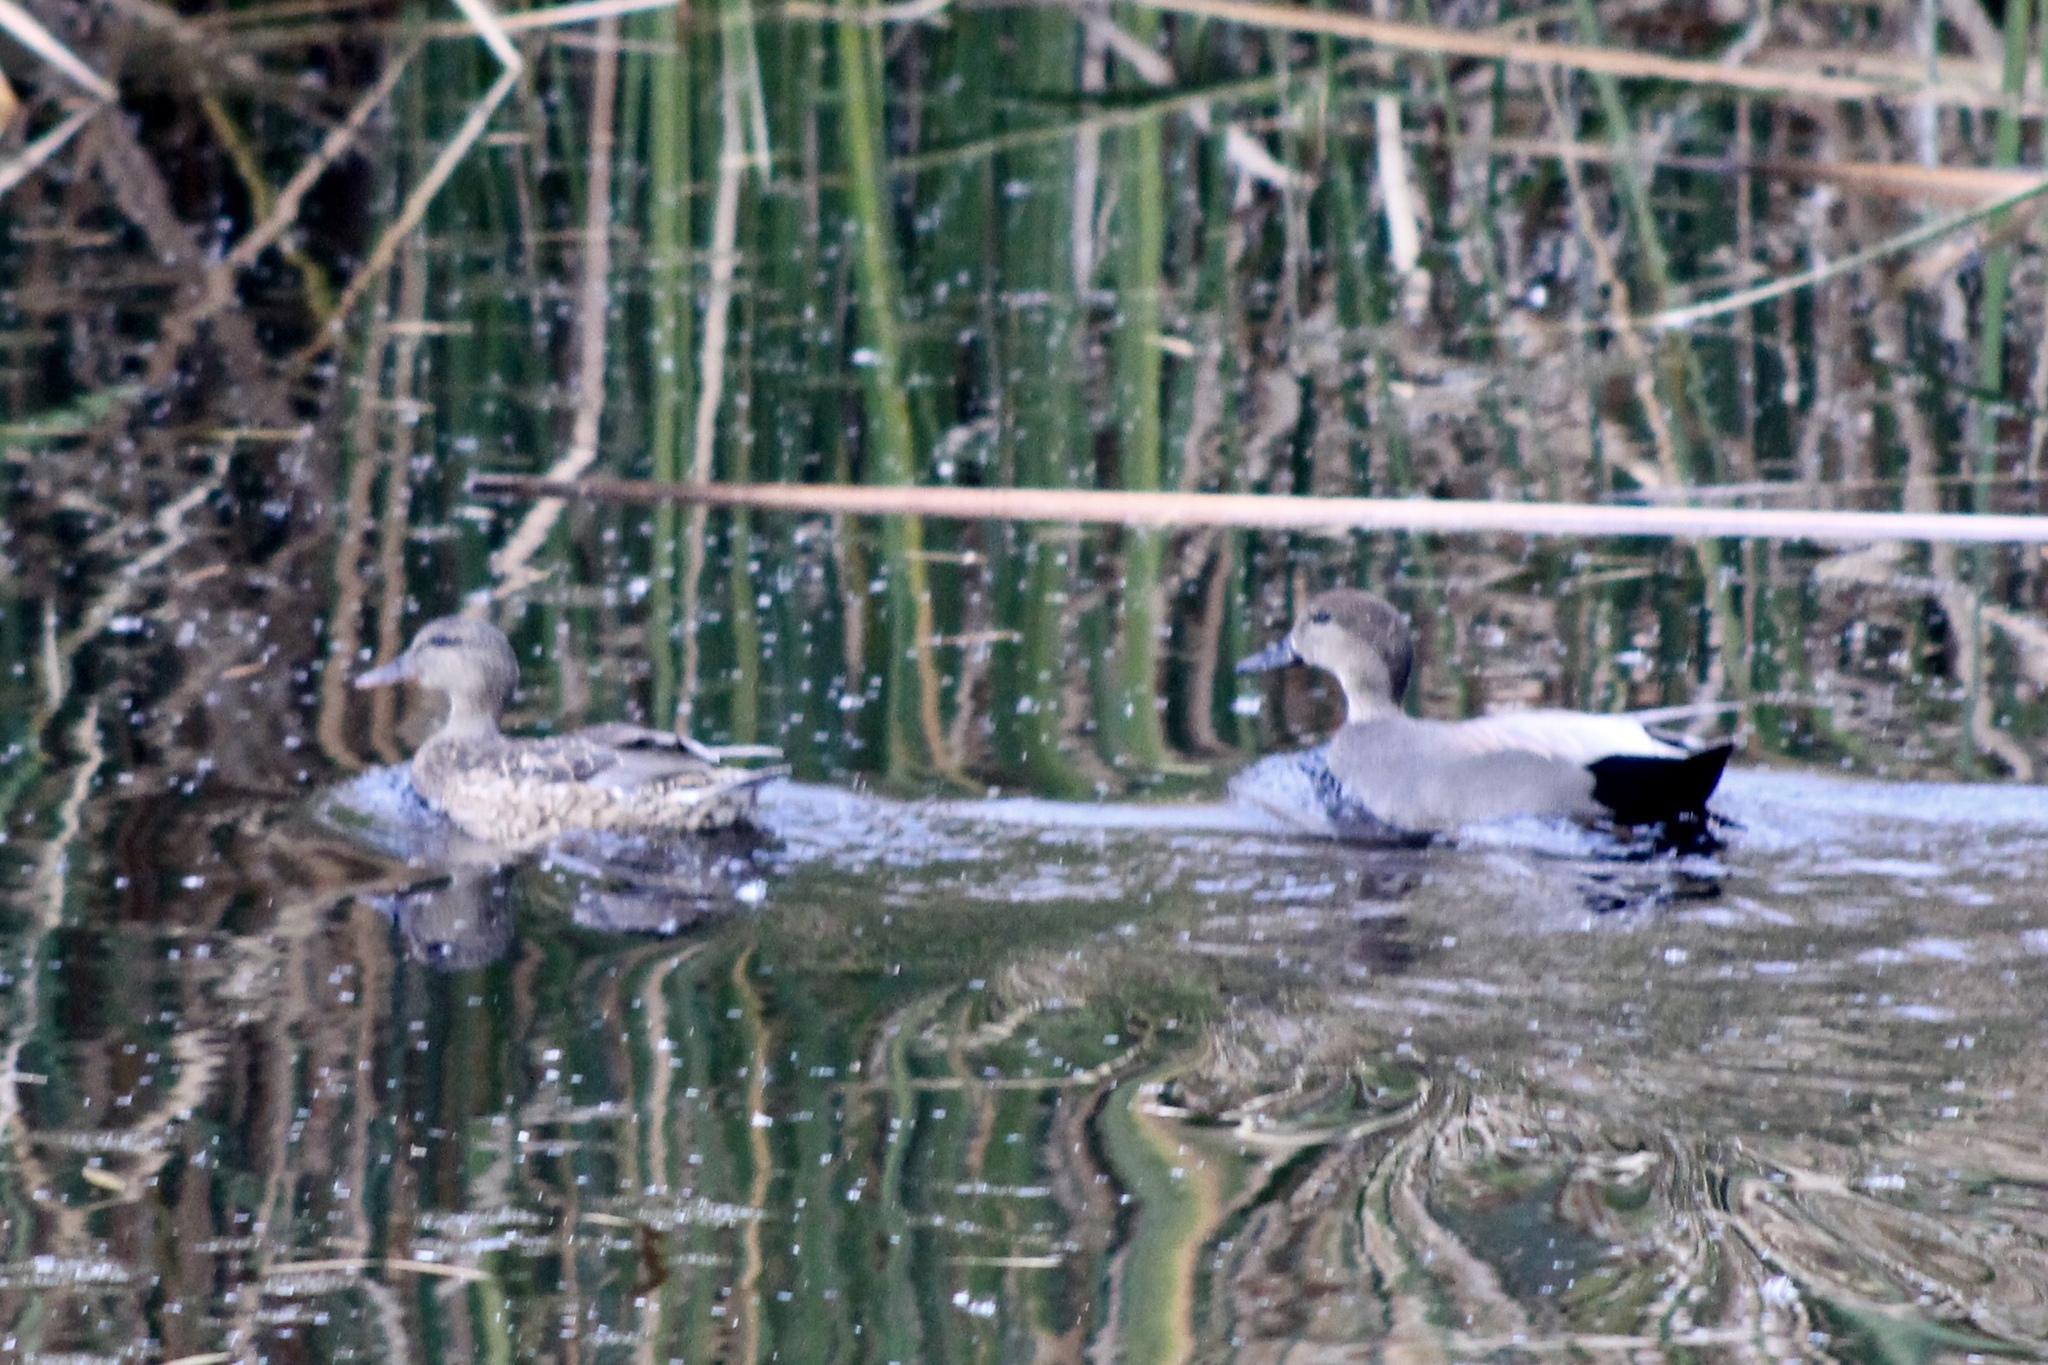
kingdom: Animalia
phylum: Chordata
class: Aves
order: Anseriformes
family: Anatidae
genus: Mareca
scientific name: Mareca strepera
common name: Gadwall
